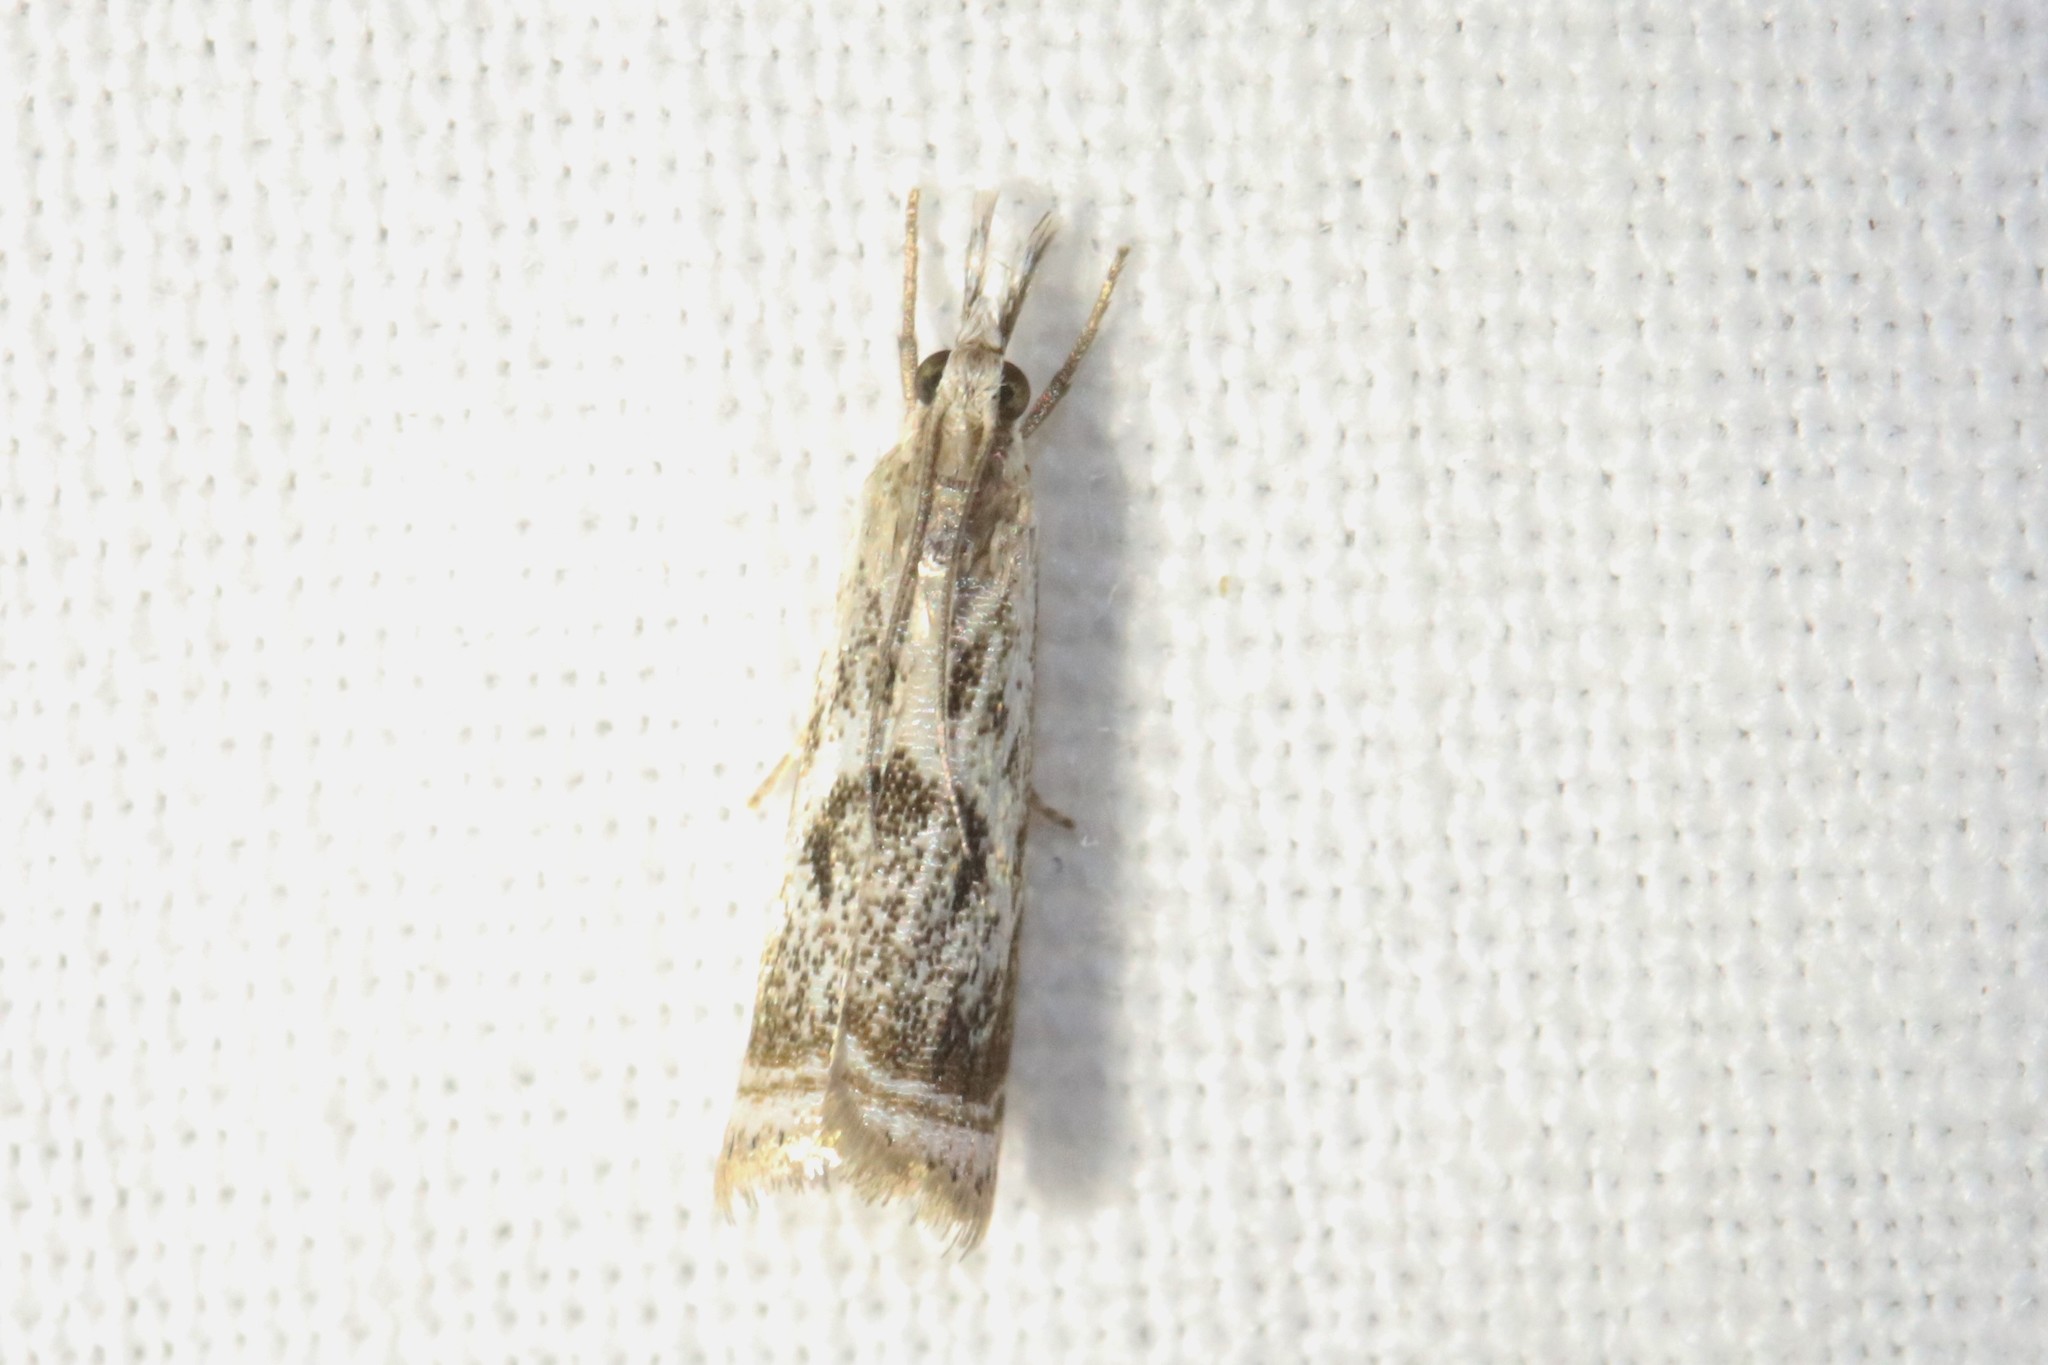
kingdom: Animalia
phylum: Arthropoda
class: Insecta
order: Lepidoptera
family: Crambidae
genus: Microcrambus
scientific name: Microcrambus elegans
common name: Elegant grass-veneer
